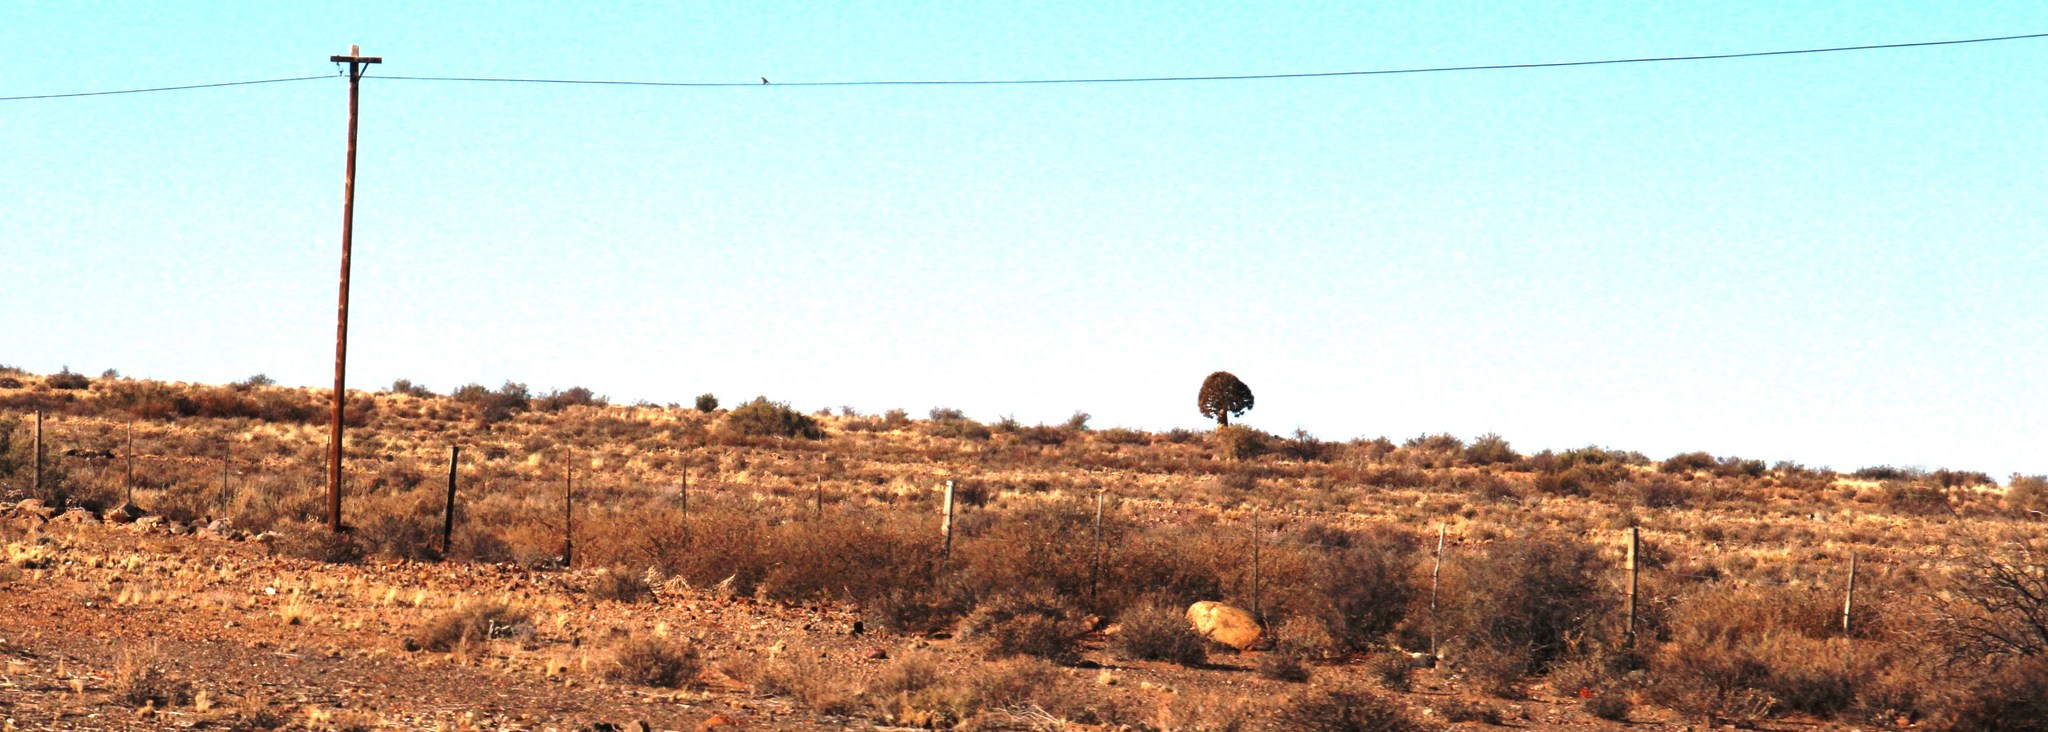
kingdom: Plantae
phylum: Tracheophyta
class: Liliopsida
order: Asparagales
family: Asphodelaceae
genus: Aloidendron
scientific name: Aloidendron dichotomum
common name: Quiver tree
